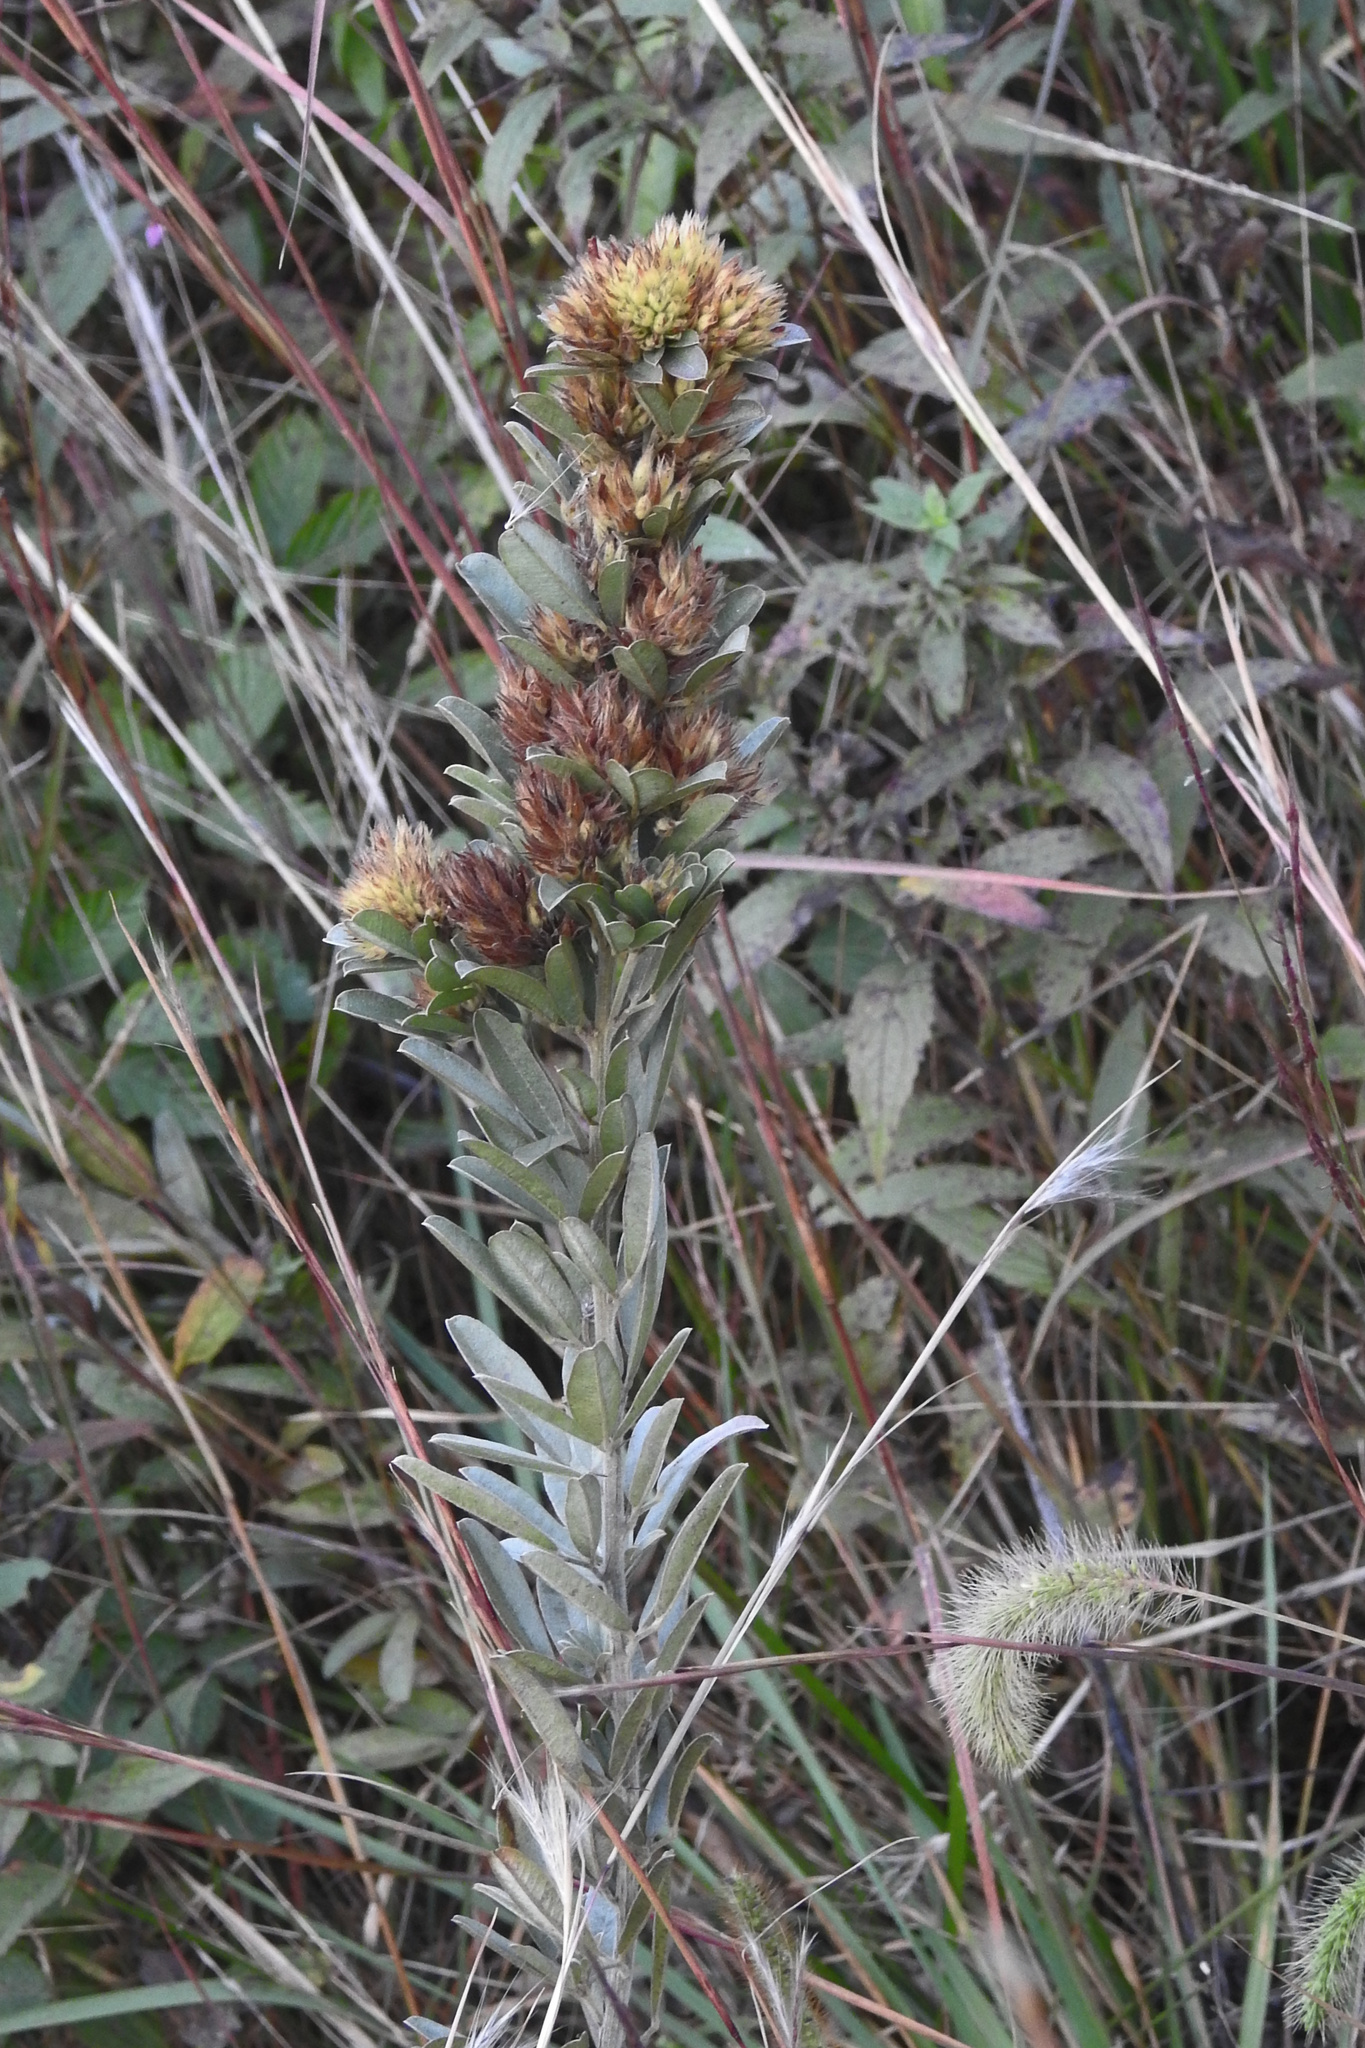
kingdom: Plantae
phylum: Tracheophyta
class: Magnoliopsida
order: Fabales
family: Fabaceae
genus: Lespedeza
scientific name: Lespedeza capitata
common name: Dusty clover
